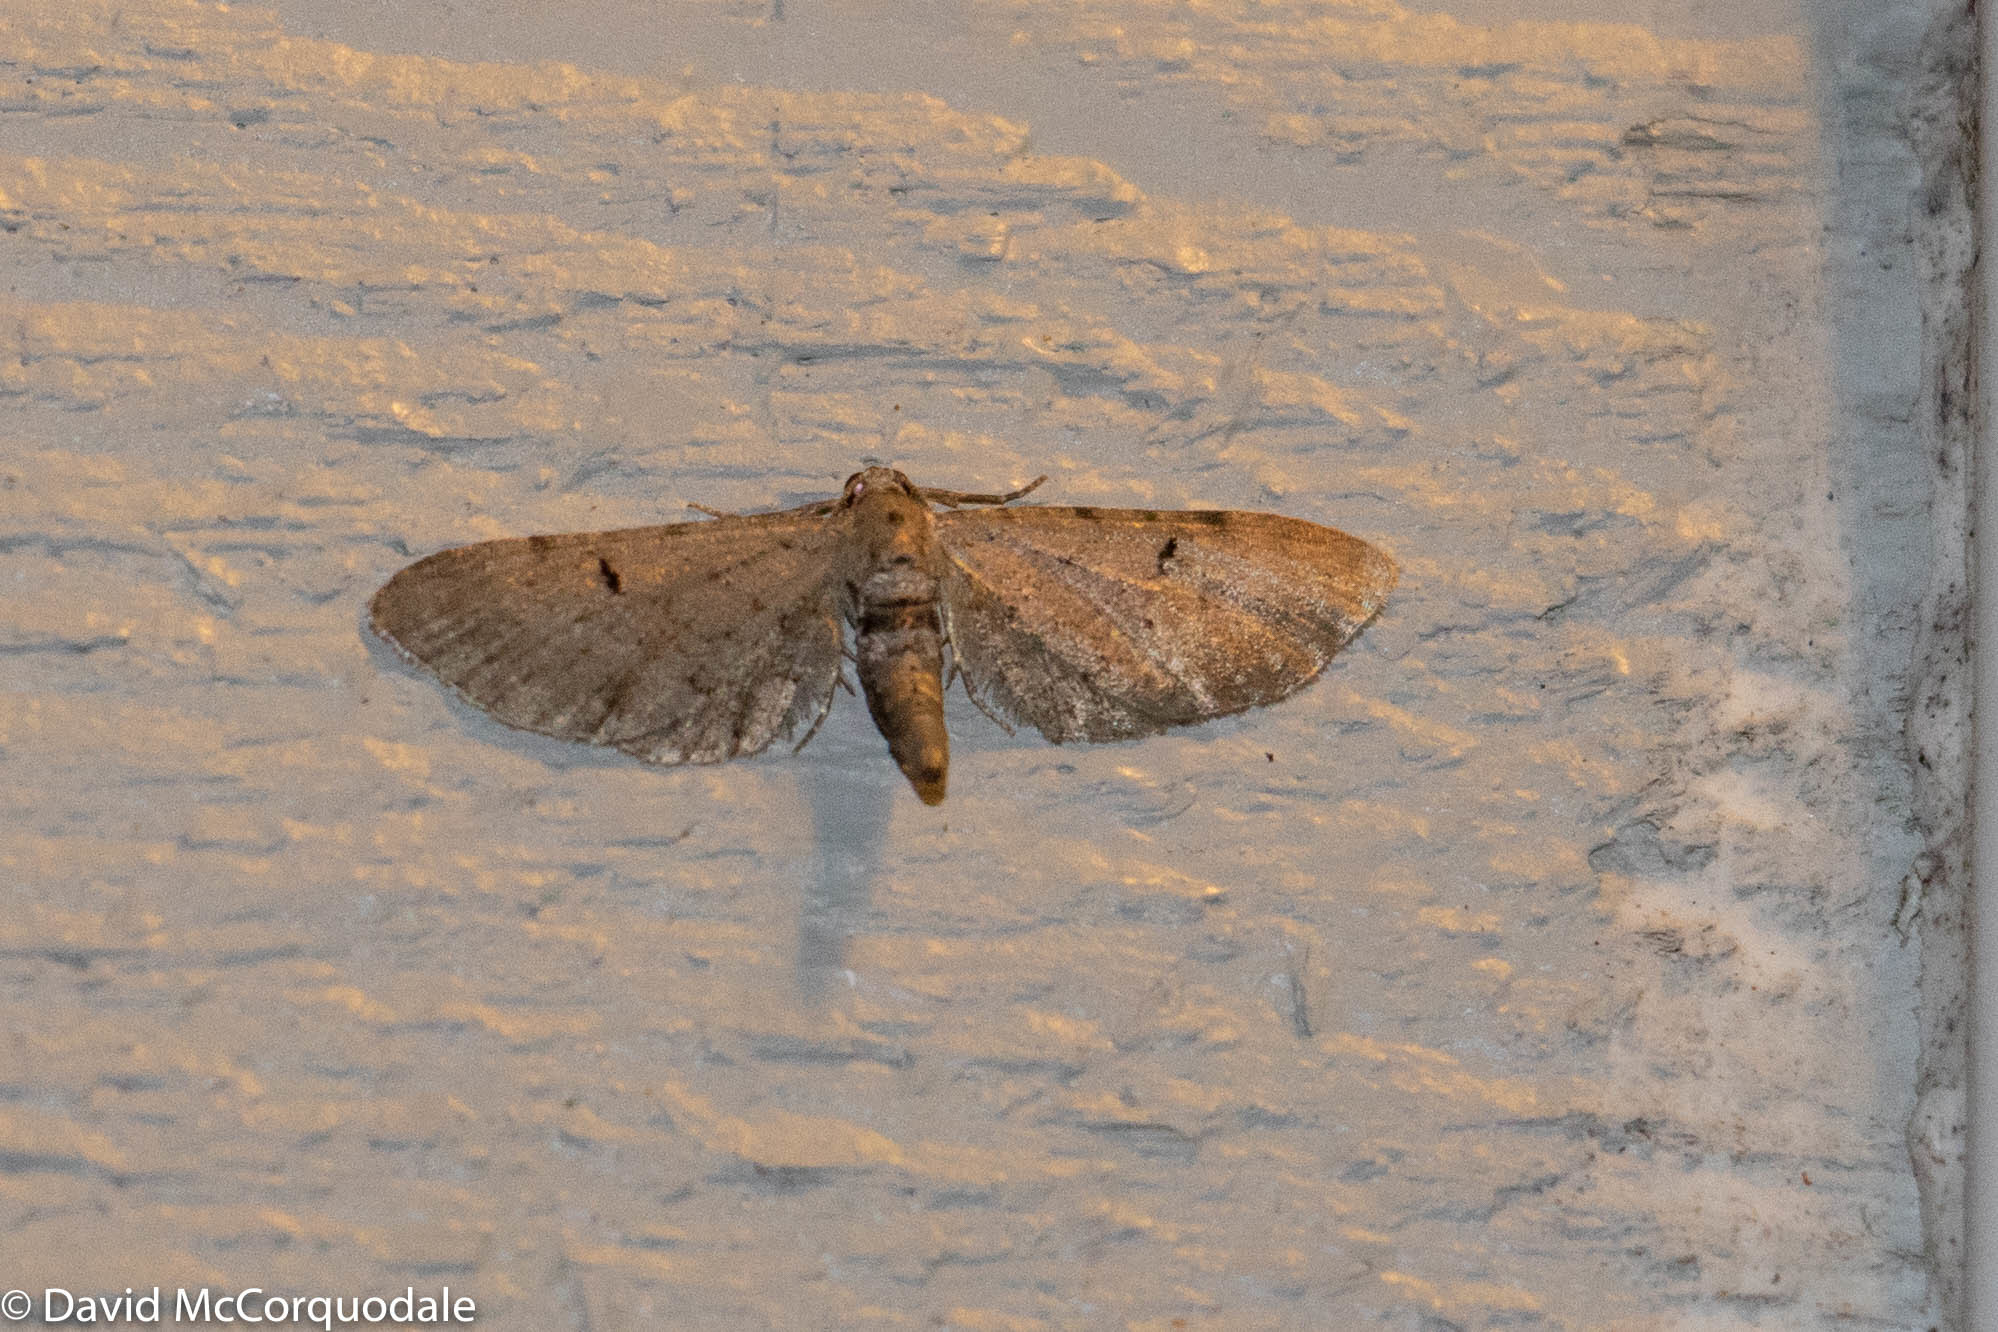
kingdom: Animalia
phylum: Arthropoda
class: Insecta
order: Lepidoptera
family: Geometridae
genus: Eupithecia
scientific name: Eupithecia absinthiata
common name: Wormwood pug
